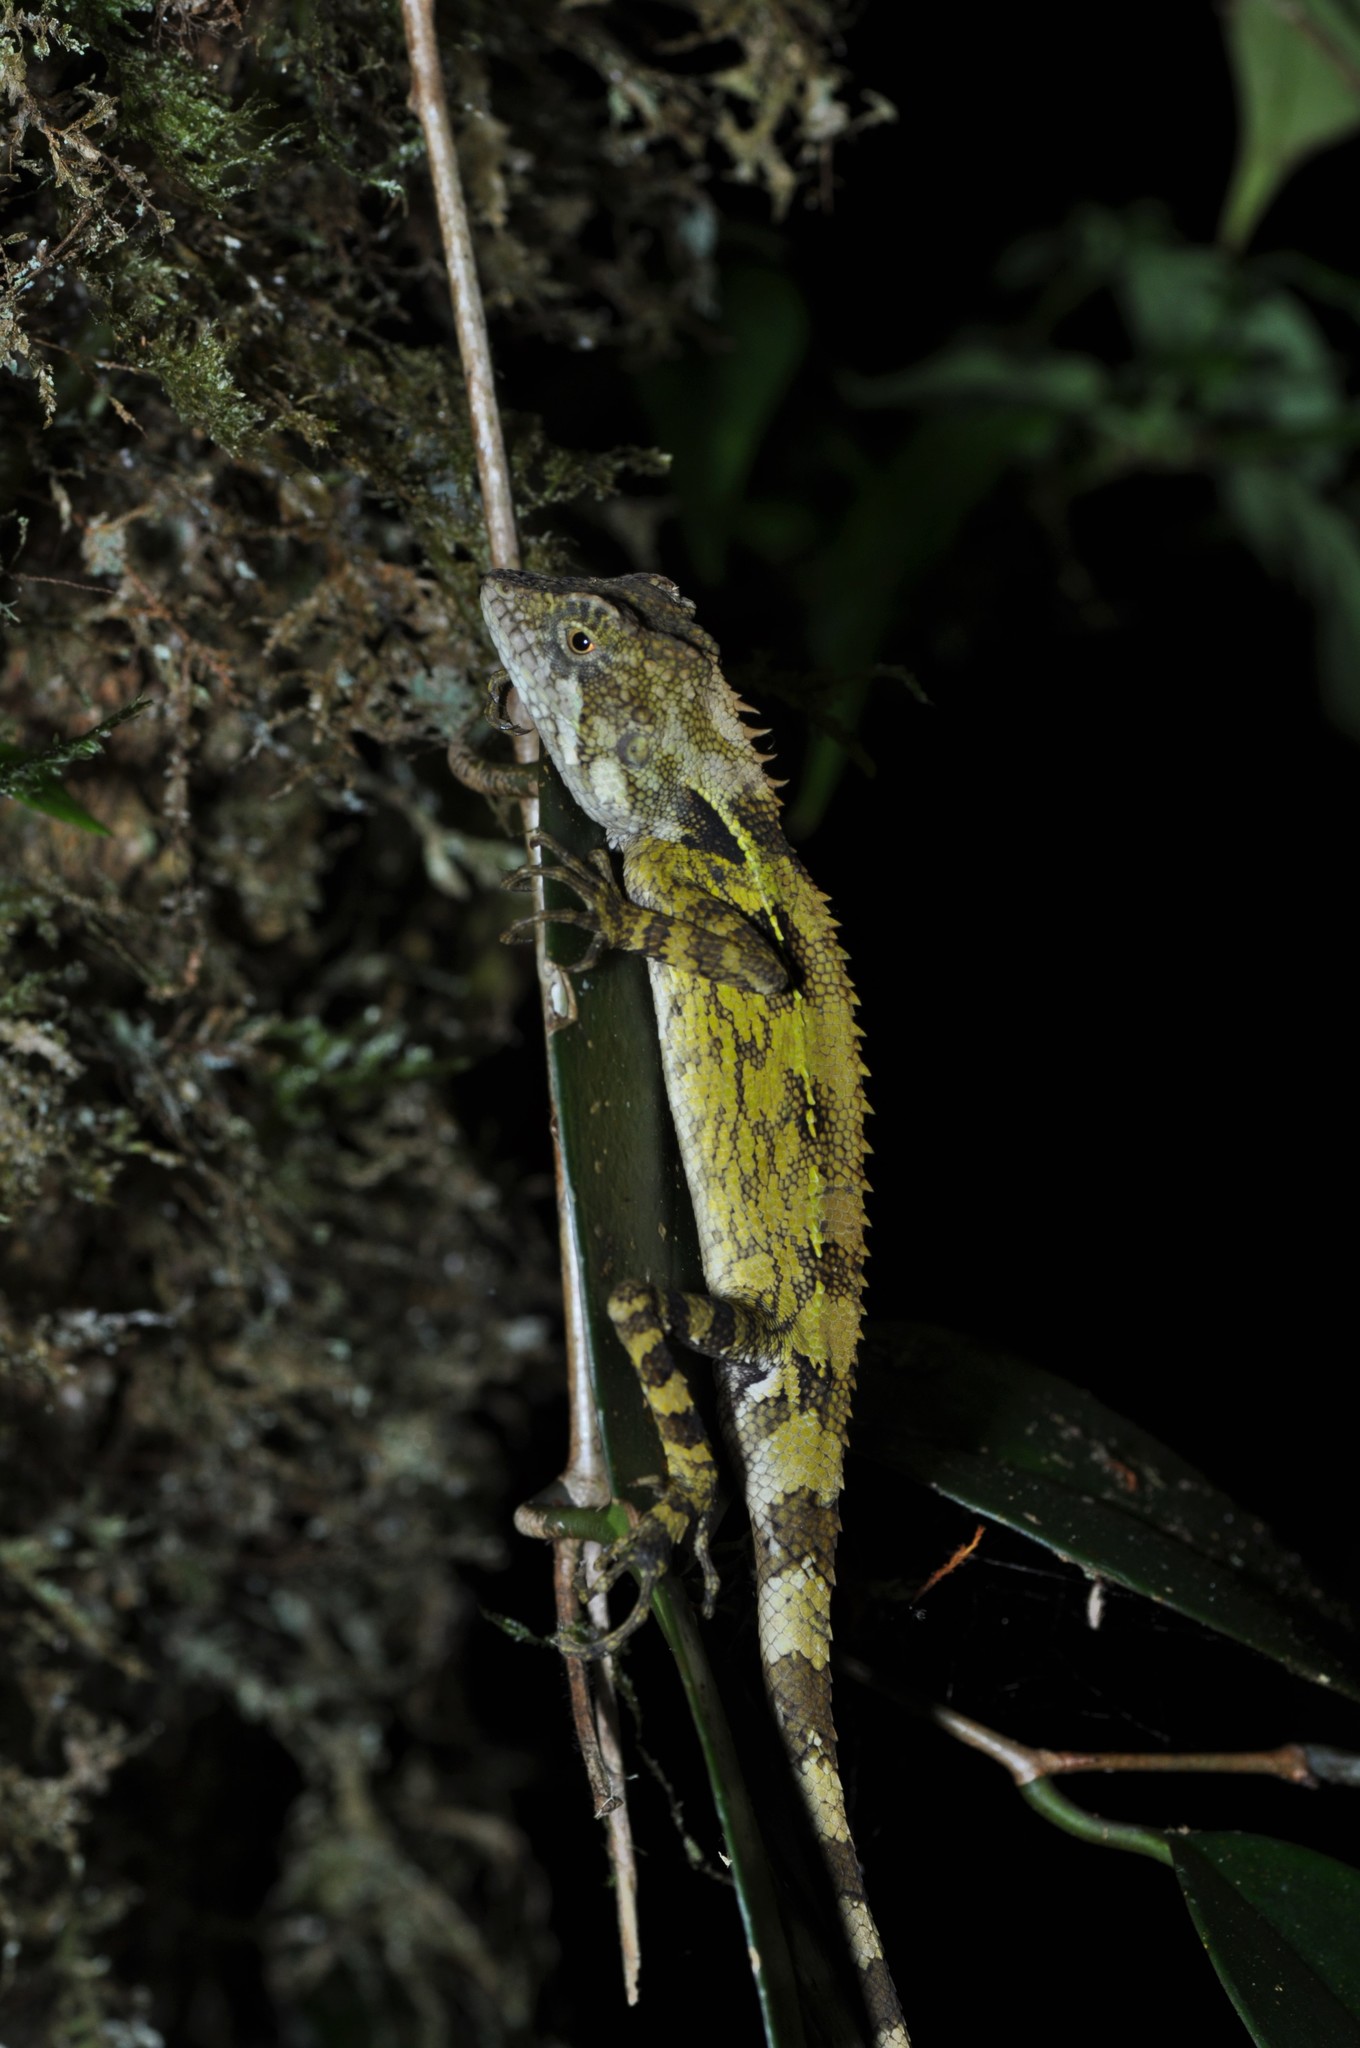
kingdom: Animalia
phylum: Chordata
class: Squamata
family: Agamidae
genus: Dendragama
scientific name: Dendragama boulengeri
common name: Boulenger's tree agama
